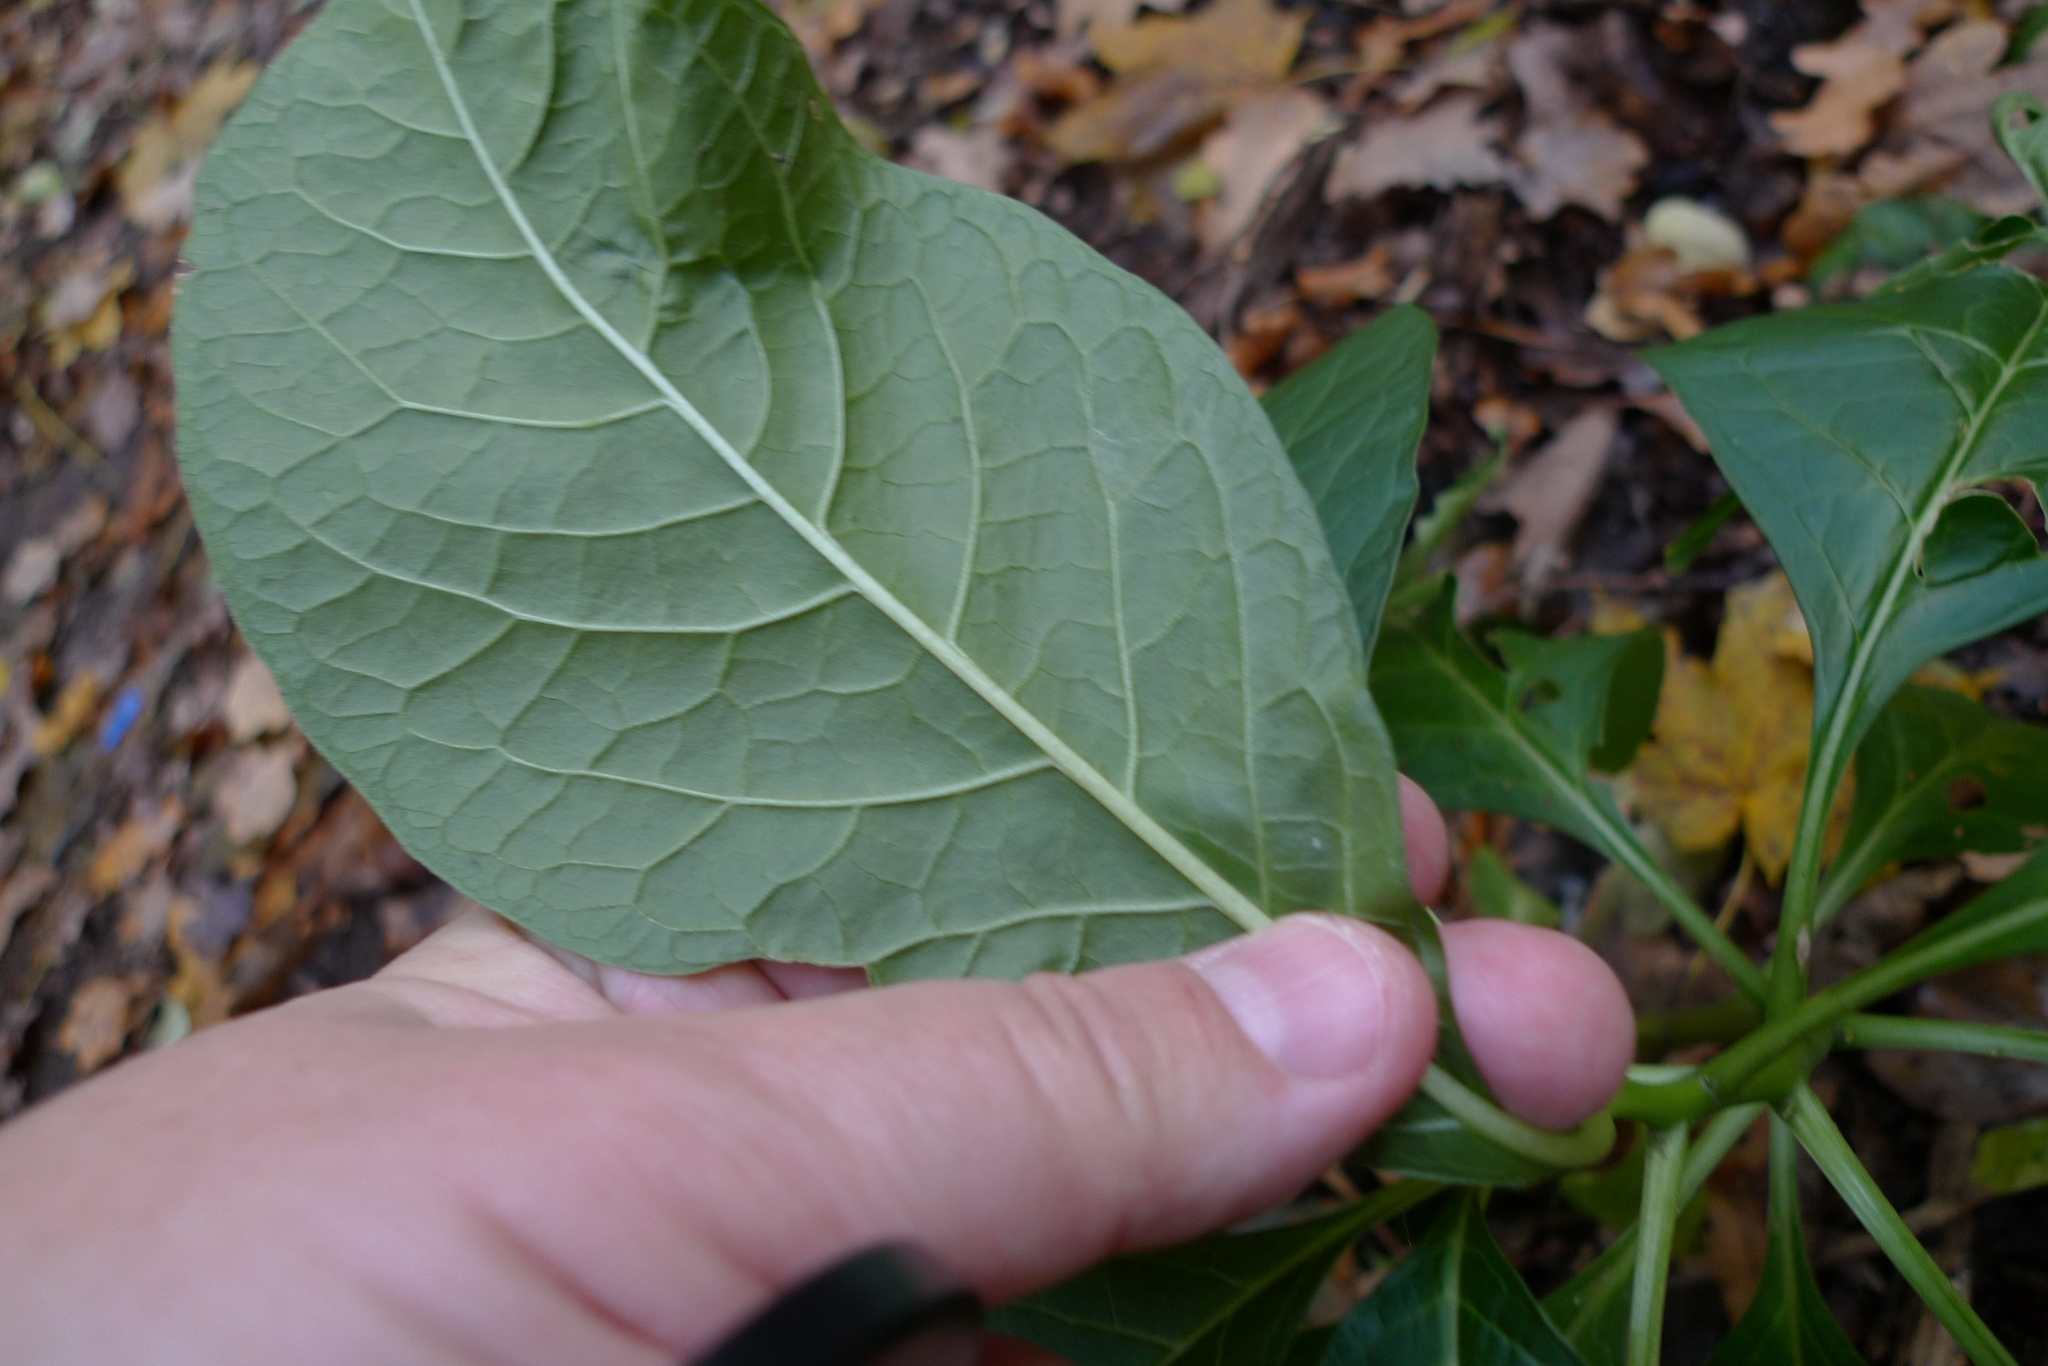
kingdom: Plantae
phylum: Tracheophyta
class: Magnoliopsida
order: Caryophyllales
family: Phytolaccaceae
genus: Phytolacca
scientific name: Phytolacca acinosa
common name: Indian pokeweed
